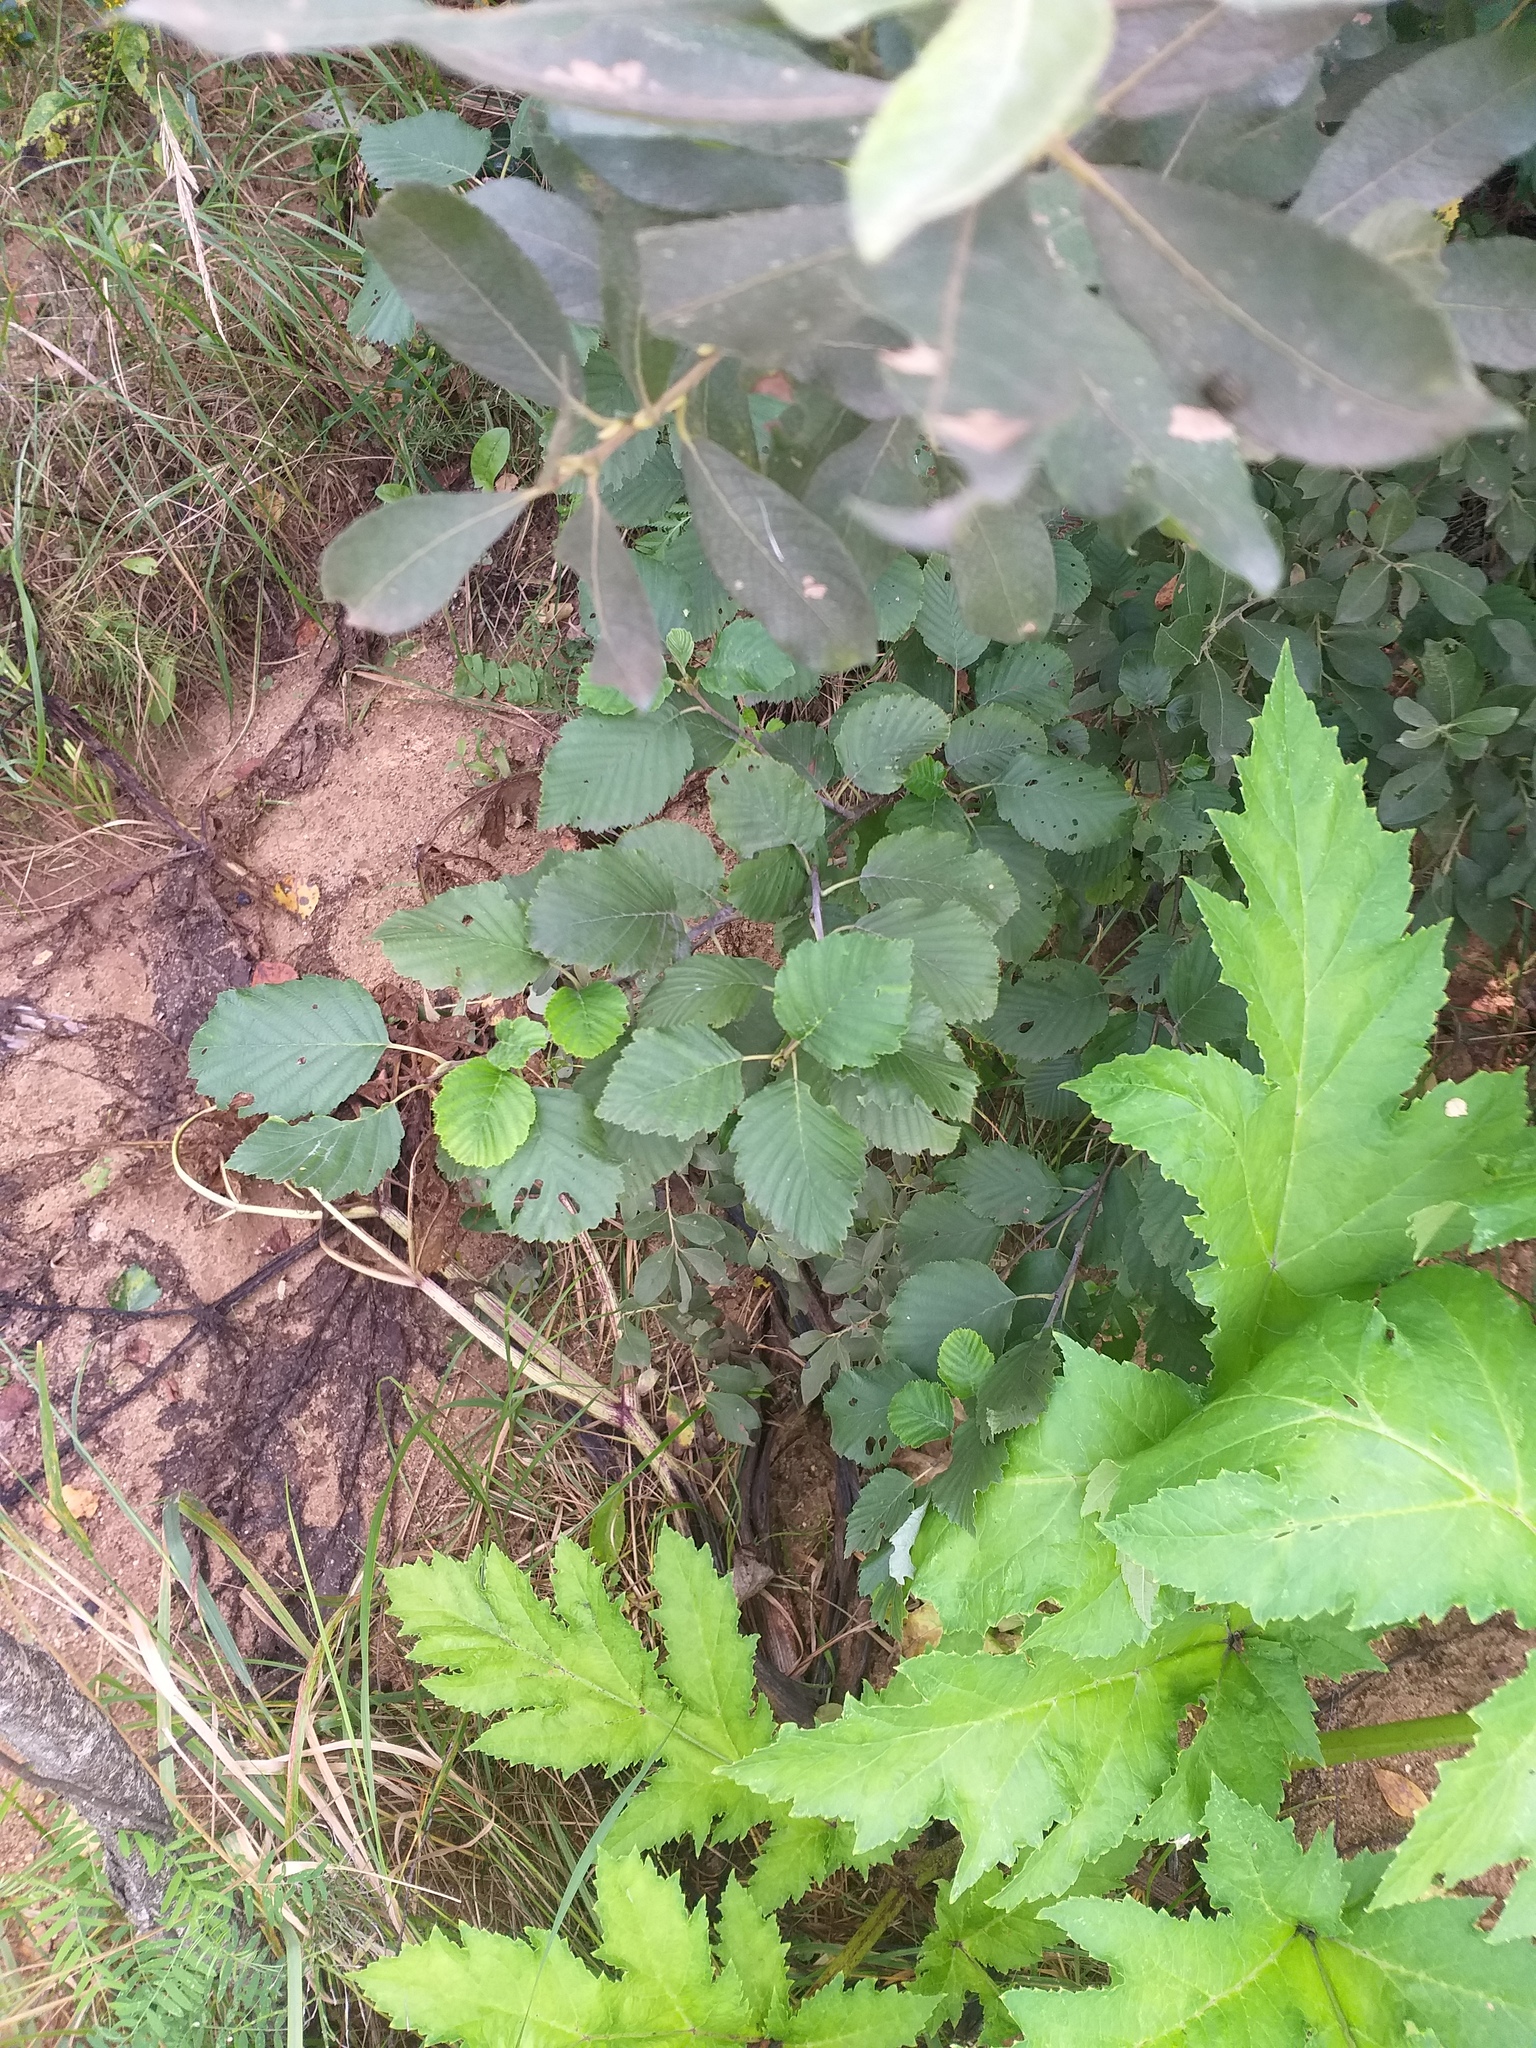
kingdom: Plantae
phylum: Tracheophyta
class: Magnoliopsida
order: Fagales
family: Betulaceae
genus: Alnus
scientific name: Alnus incana
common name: Grey alder
